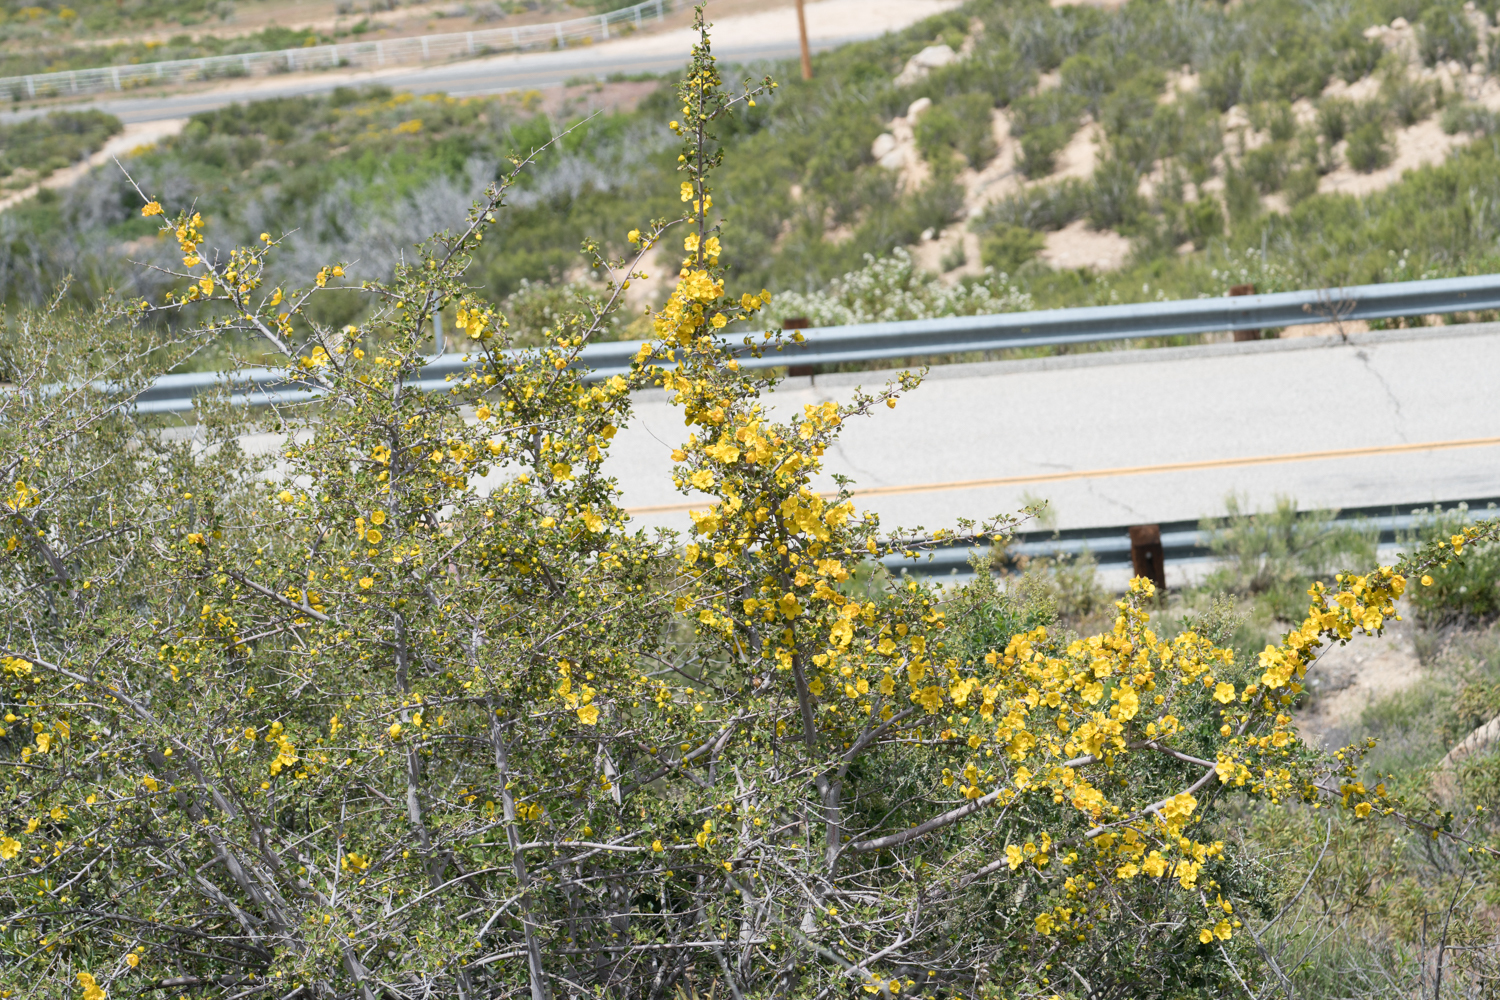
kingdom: Plantae
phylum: Tracheophyta
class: Magnoliopsida
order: Malvales
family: Malvaceae
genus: Fremontodendron
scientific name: Fremontodendron californicum
